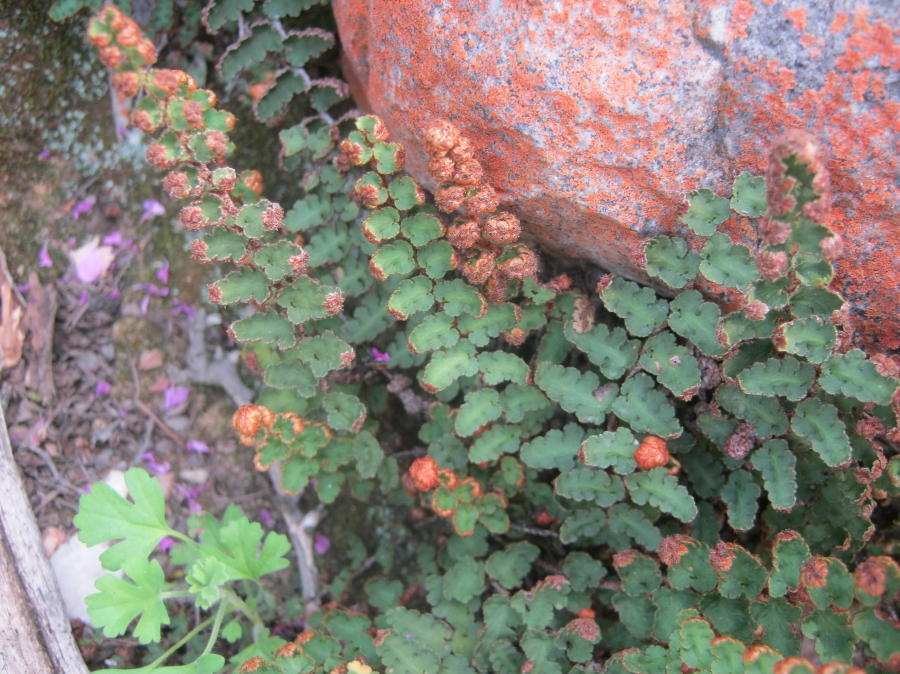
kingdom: Plantae
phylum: Tracheophyta
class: Polypodiopsida
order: Polypodiales
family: Aspleniaceae
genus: Asplenium
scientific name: Asplenium cordatum
